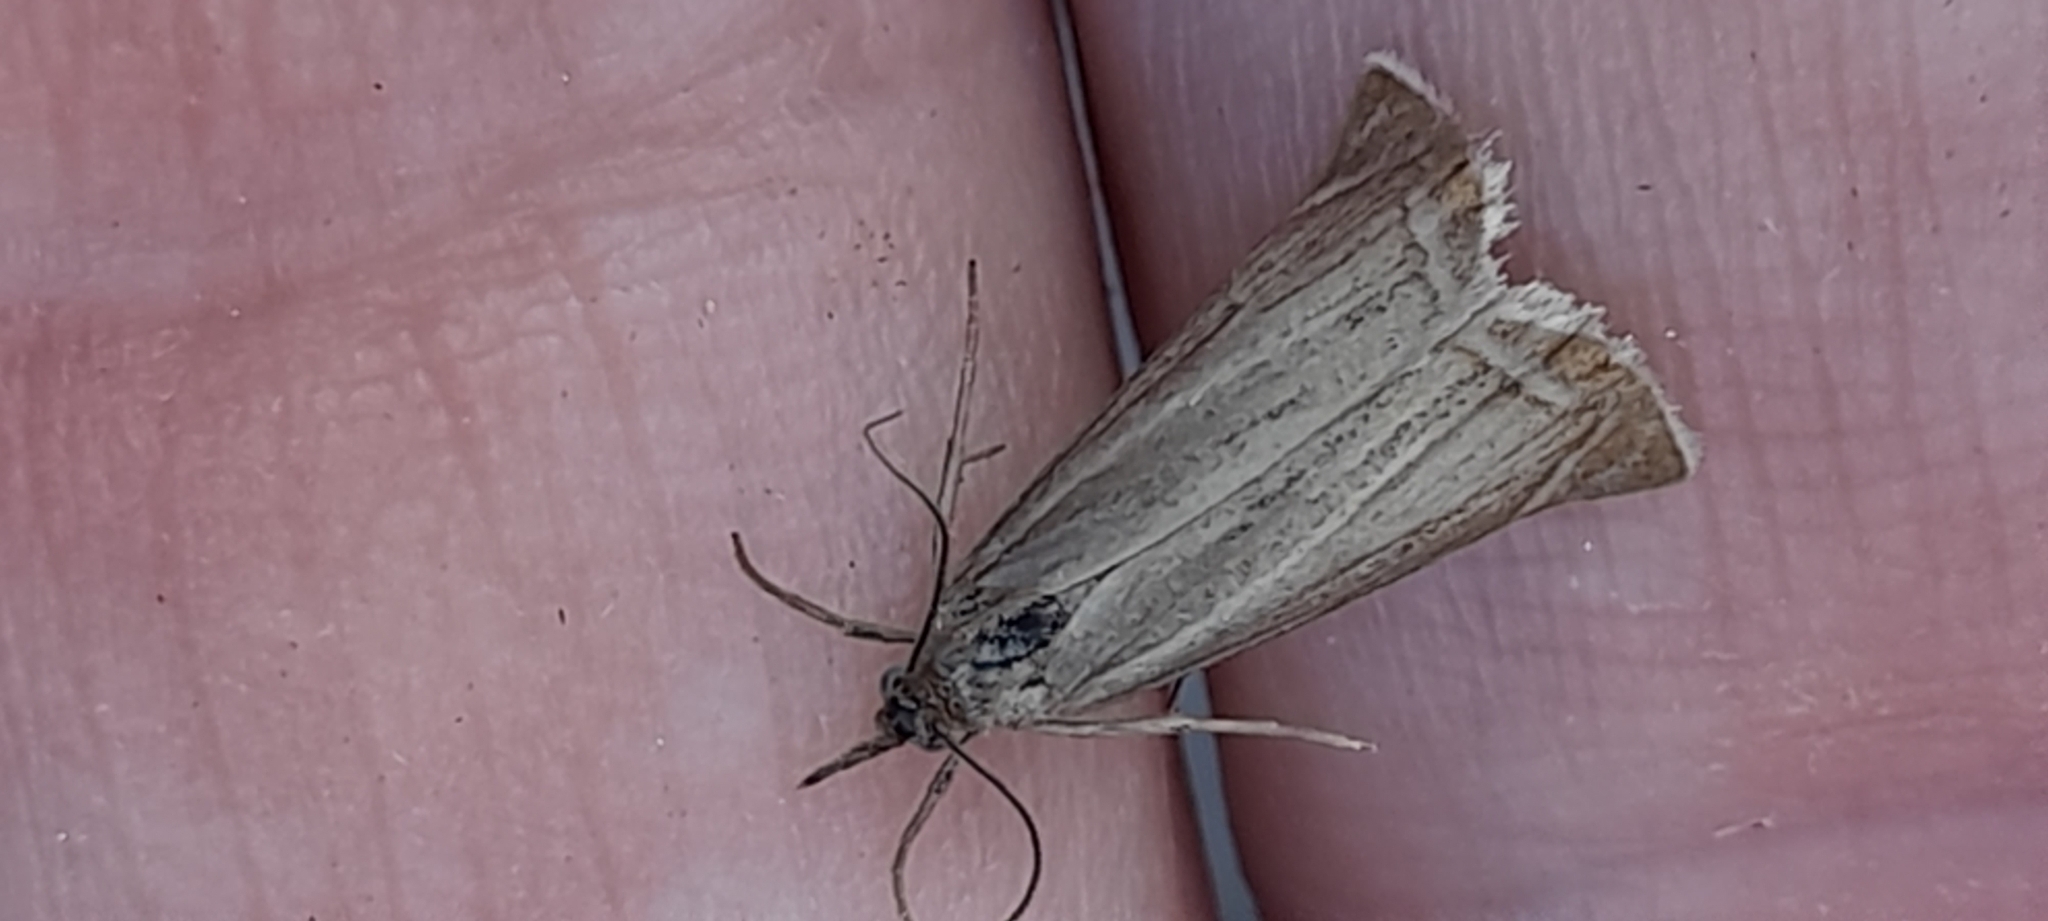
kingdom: Animalia
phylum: Arthropoda
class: Insecta
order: Lepidoptera
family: Crambidae
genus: Chrysoteuchia
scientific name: Chrysoteuchia culmella
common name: Garden grass-veneer
